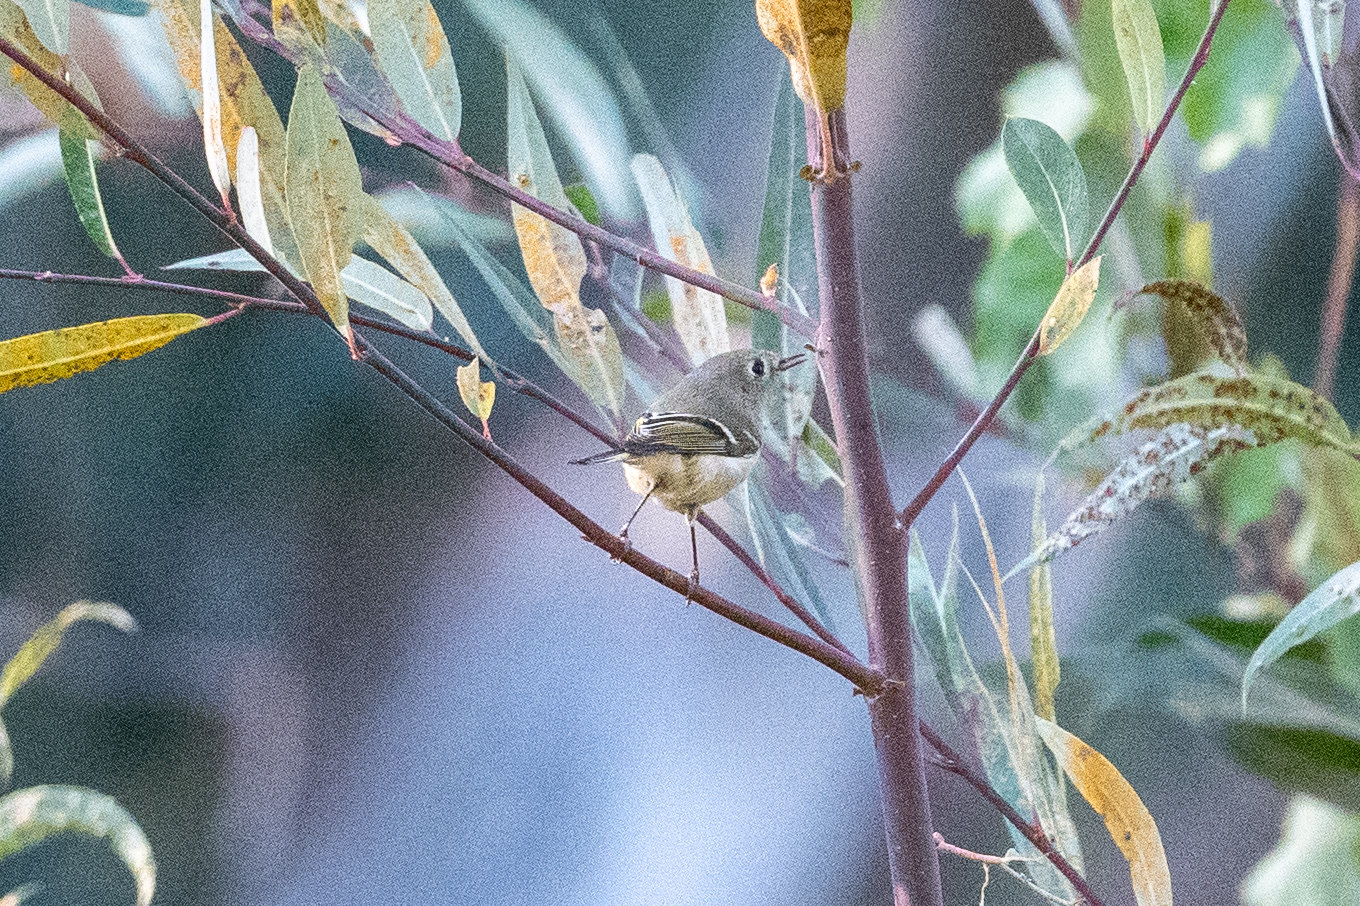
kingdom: Animalia
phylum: Chordata
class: Aves
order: Passeriformes
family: Regulidae
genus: Regulus
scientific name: Regulus calendula
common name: Ruby-crowned kinglet
